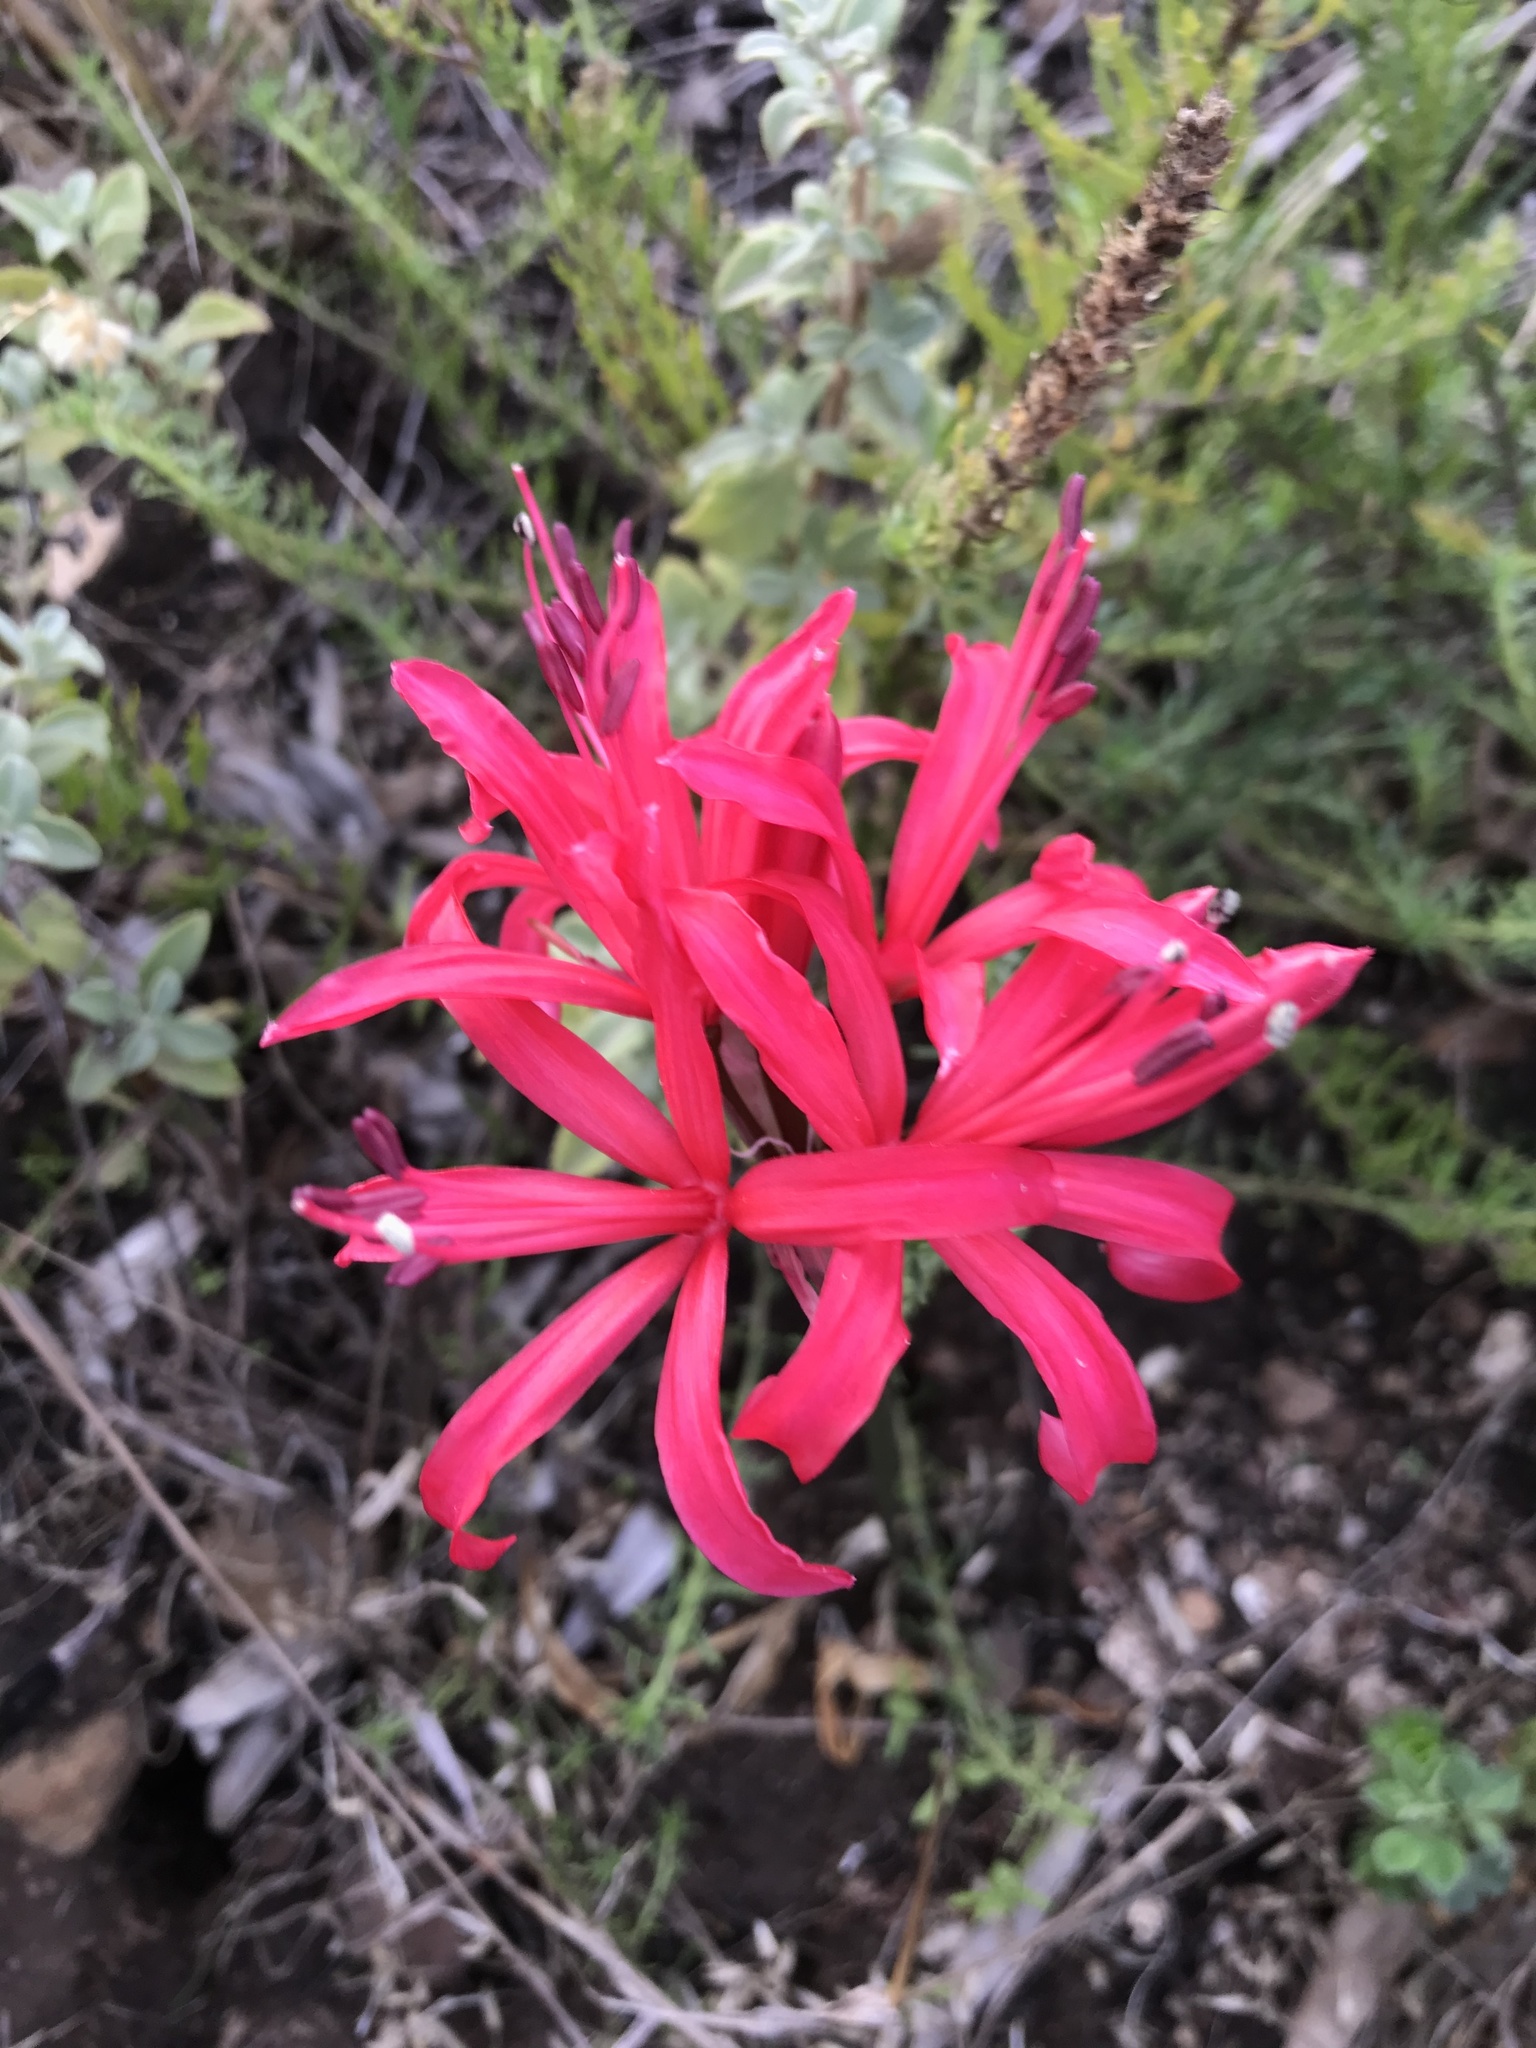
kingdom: Plantae
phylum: Tracheophyta
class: Liliopsida
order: Asparagales
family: Amaryllidaceae
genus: Nerine
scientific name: Nerine sarniensis
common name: Guernsey-lily
